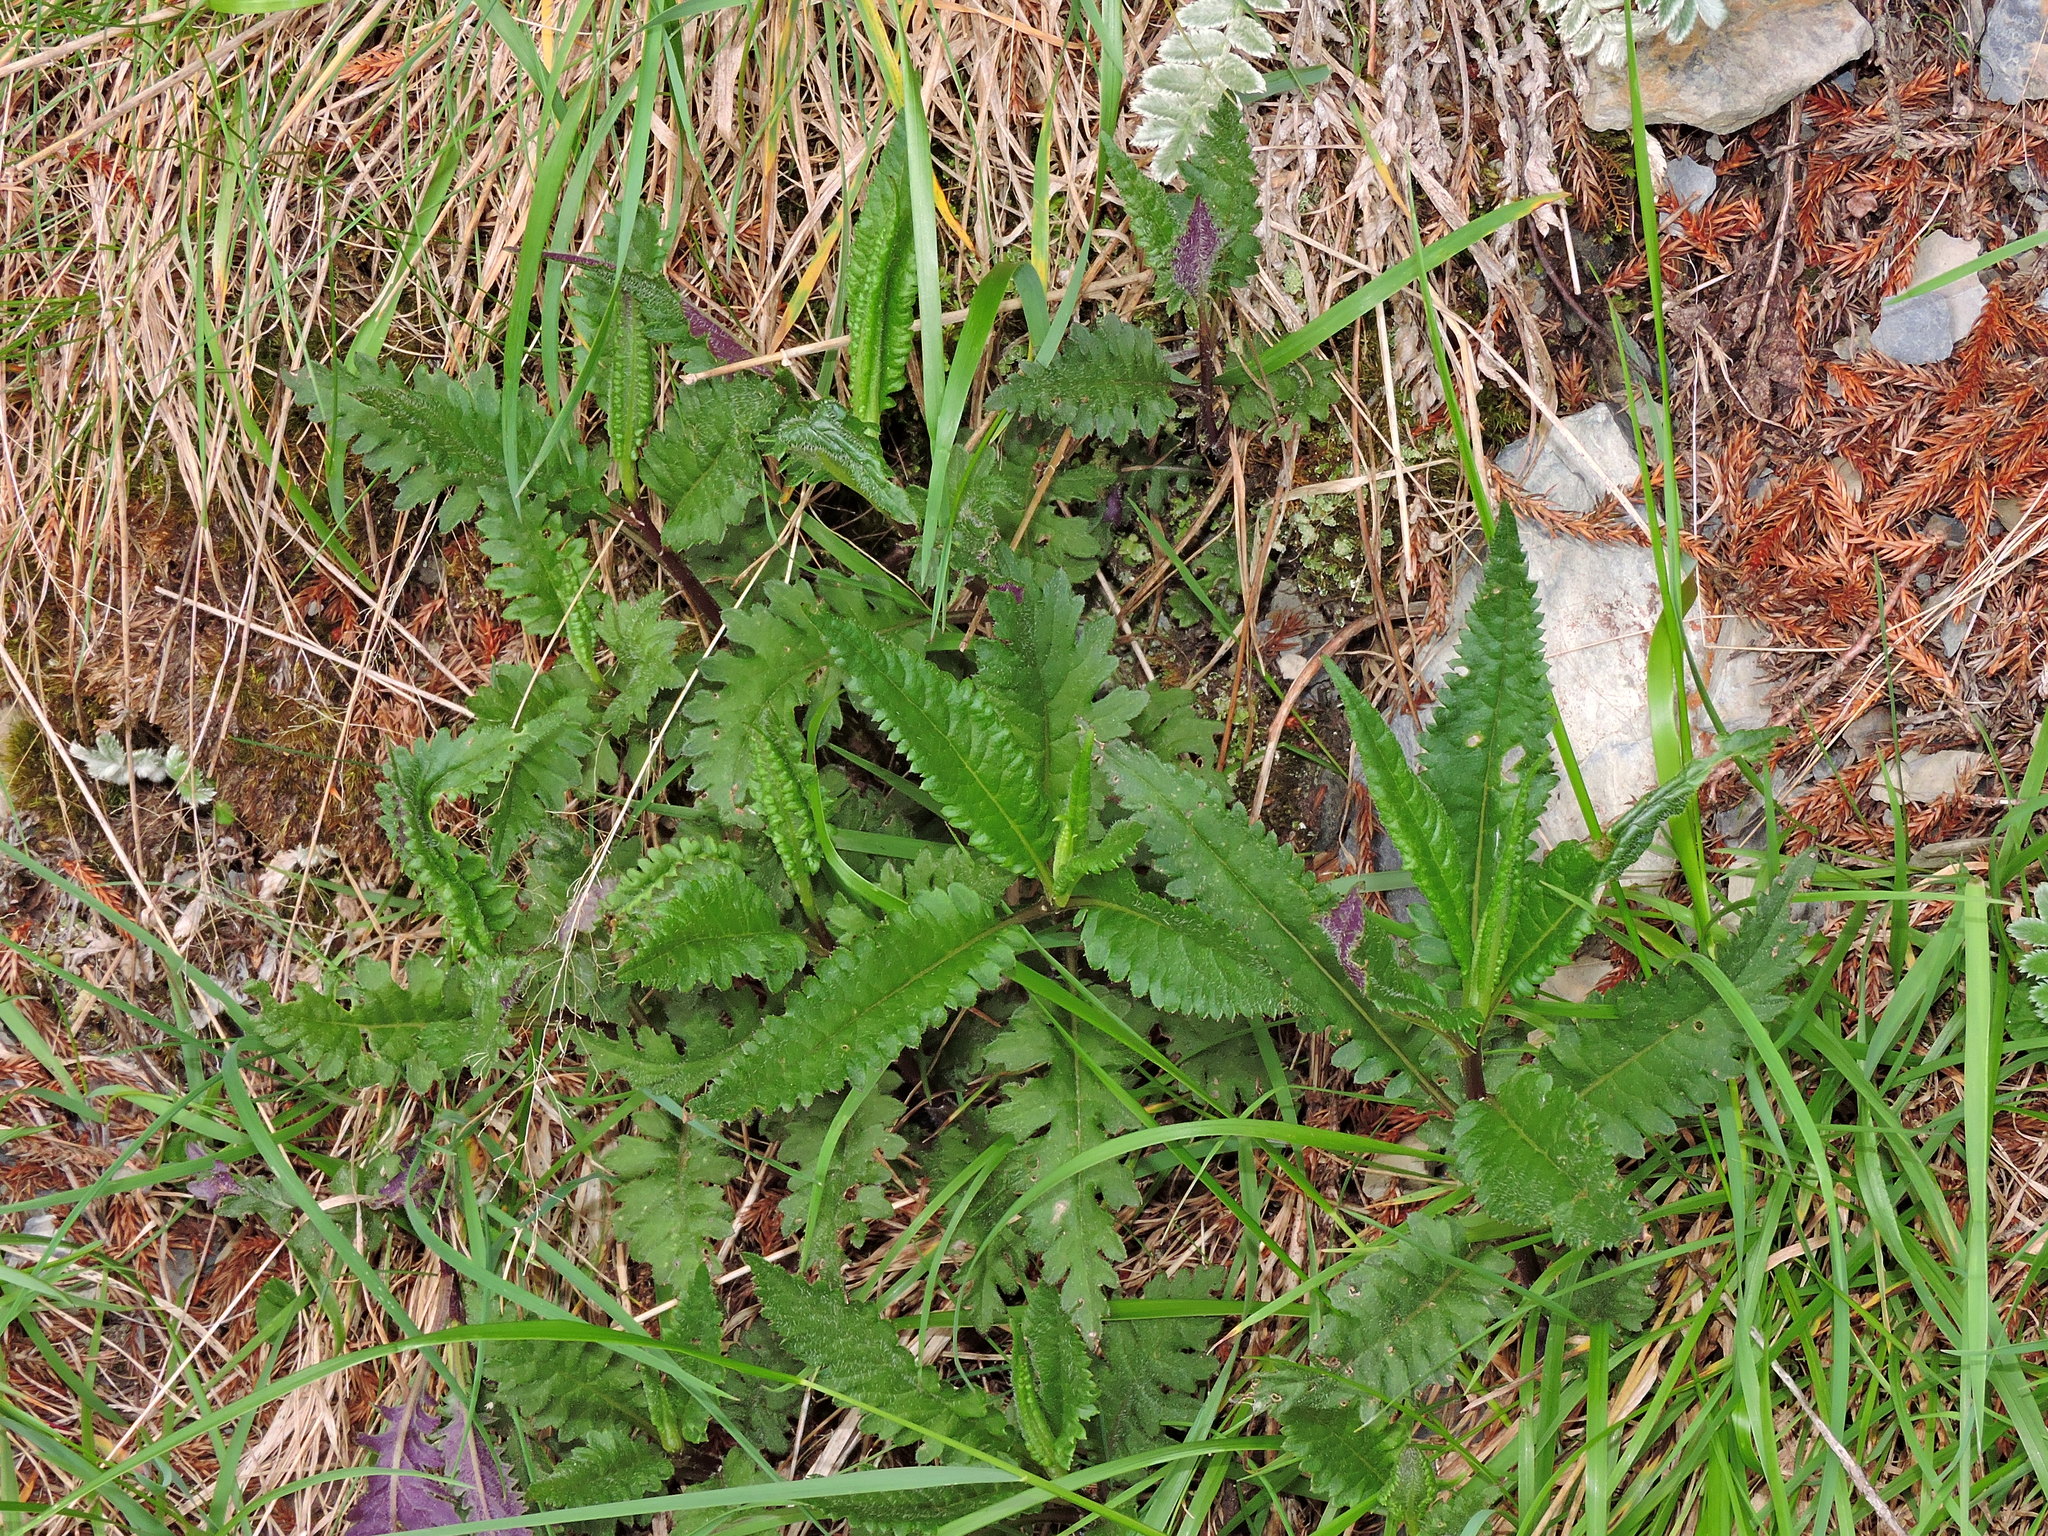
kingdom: Plantae
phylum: Tracheophyta
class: Magnoliopsida
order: Asterales
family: Asteraceae
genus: Jacobaea
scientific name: Jacobaea morrisonensis
